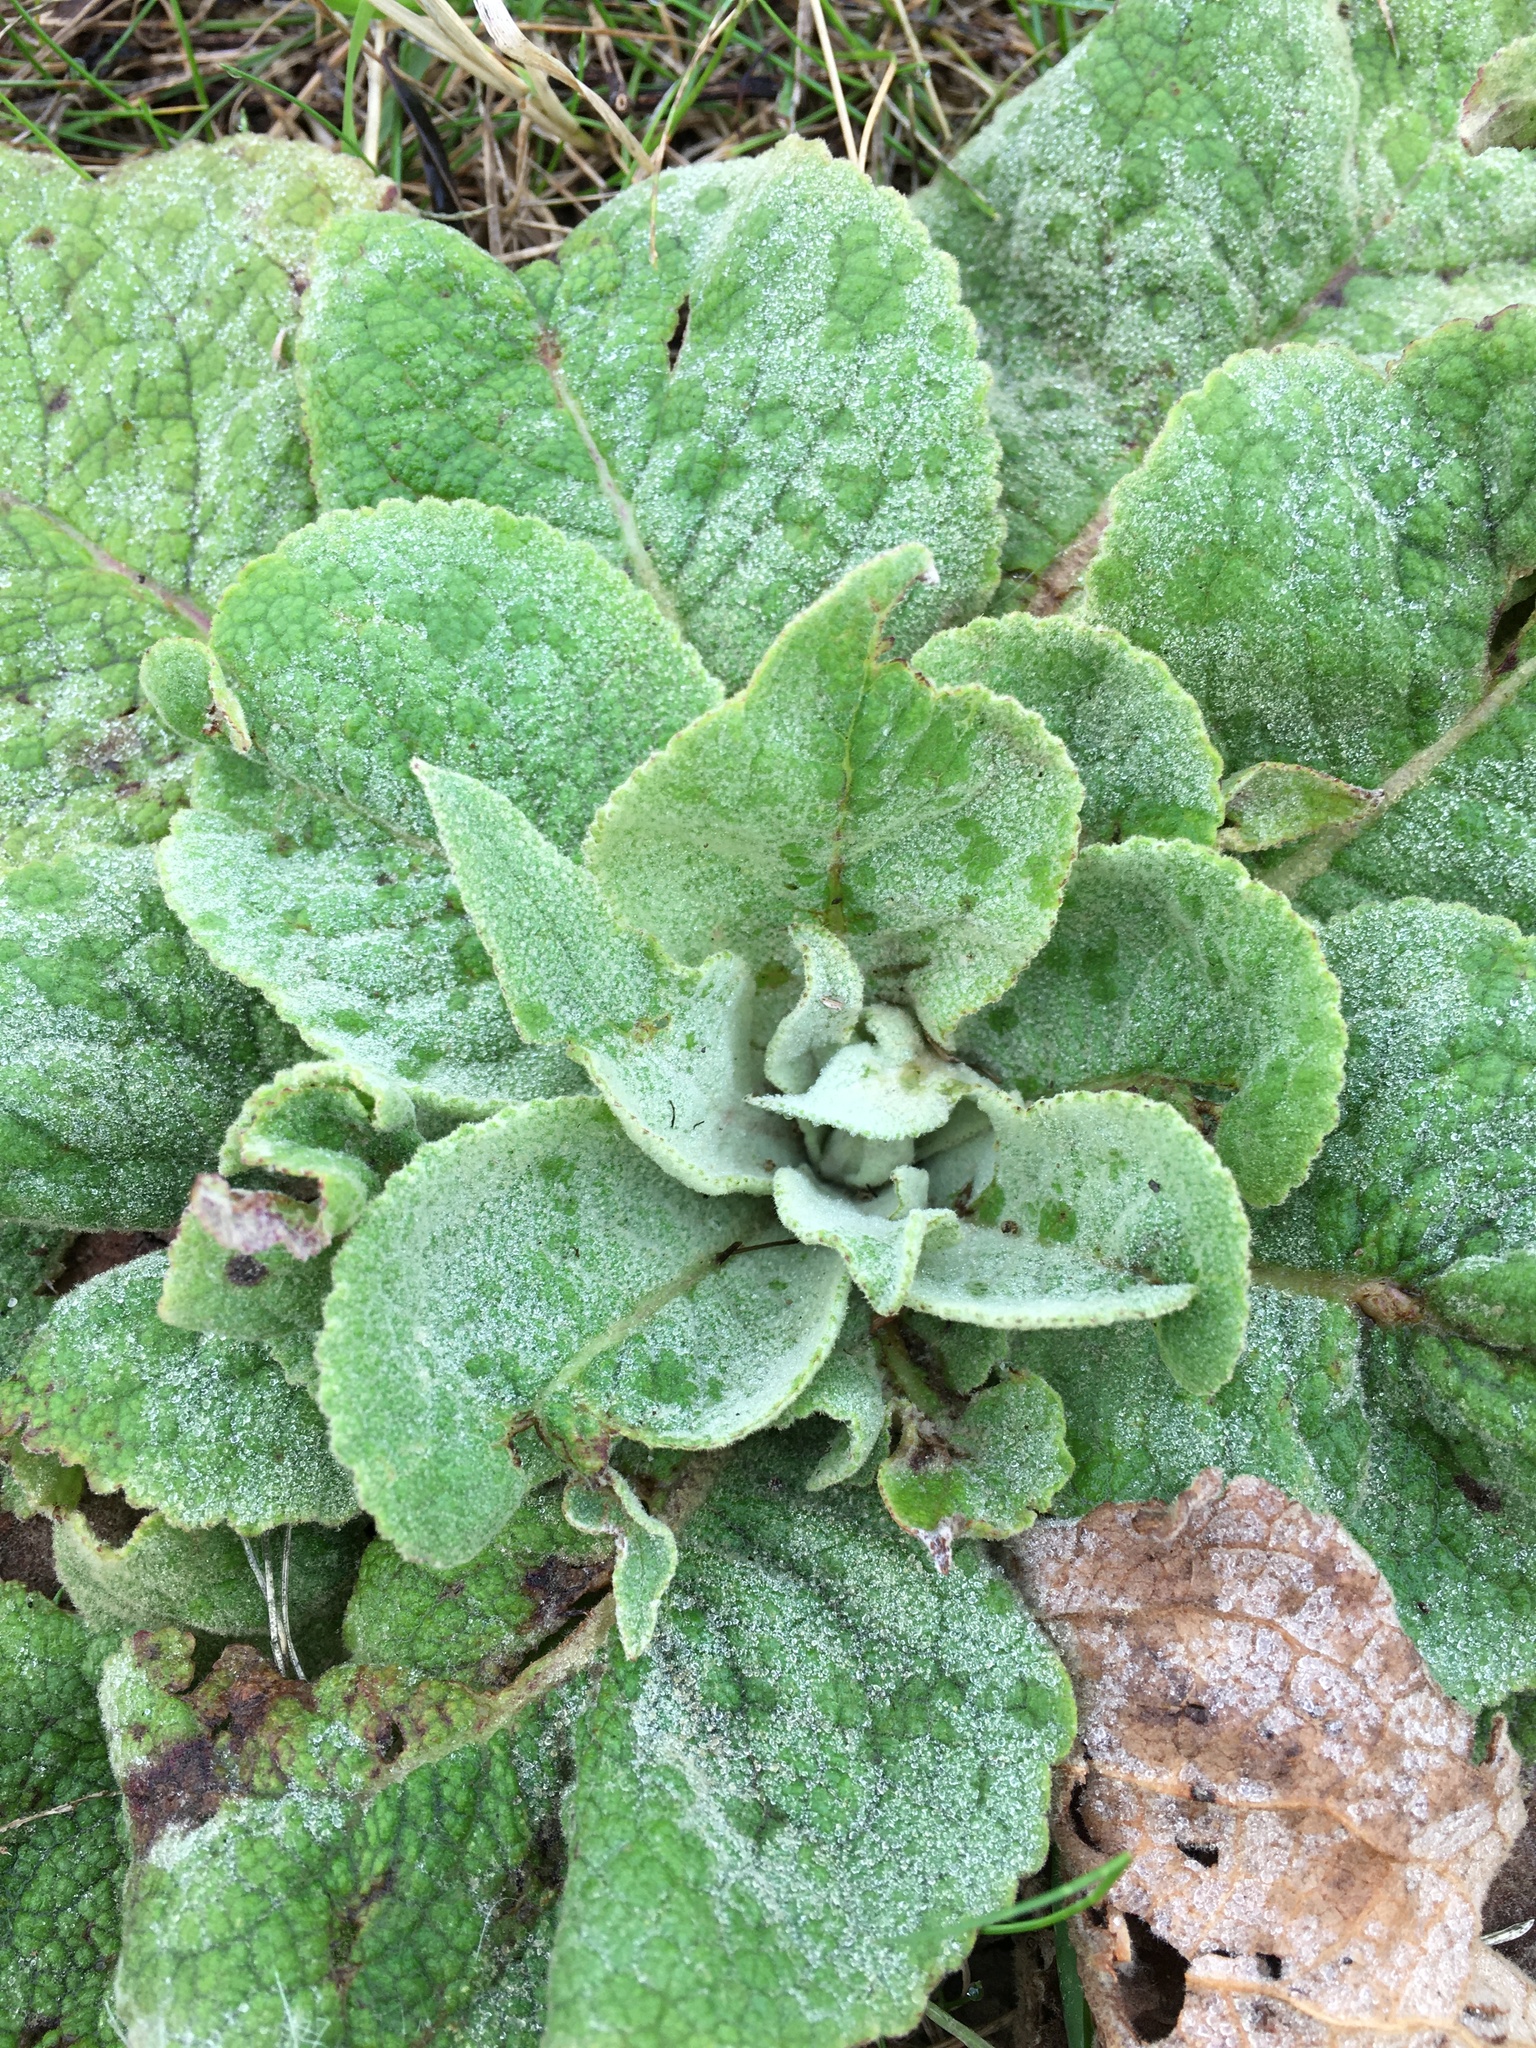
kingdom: Plantae
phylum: Tracheophyta
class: Magnoliopsida
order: Lamiales
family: Scrophulariaceae
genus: Verbascum
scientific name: Verbascum thapsus
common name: Common mullein
